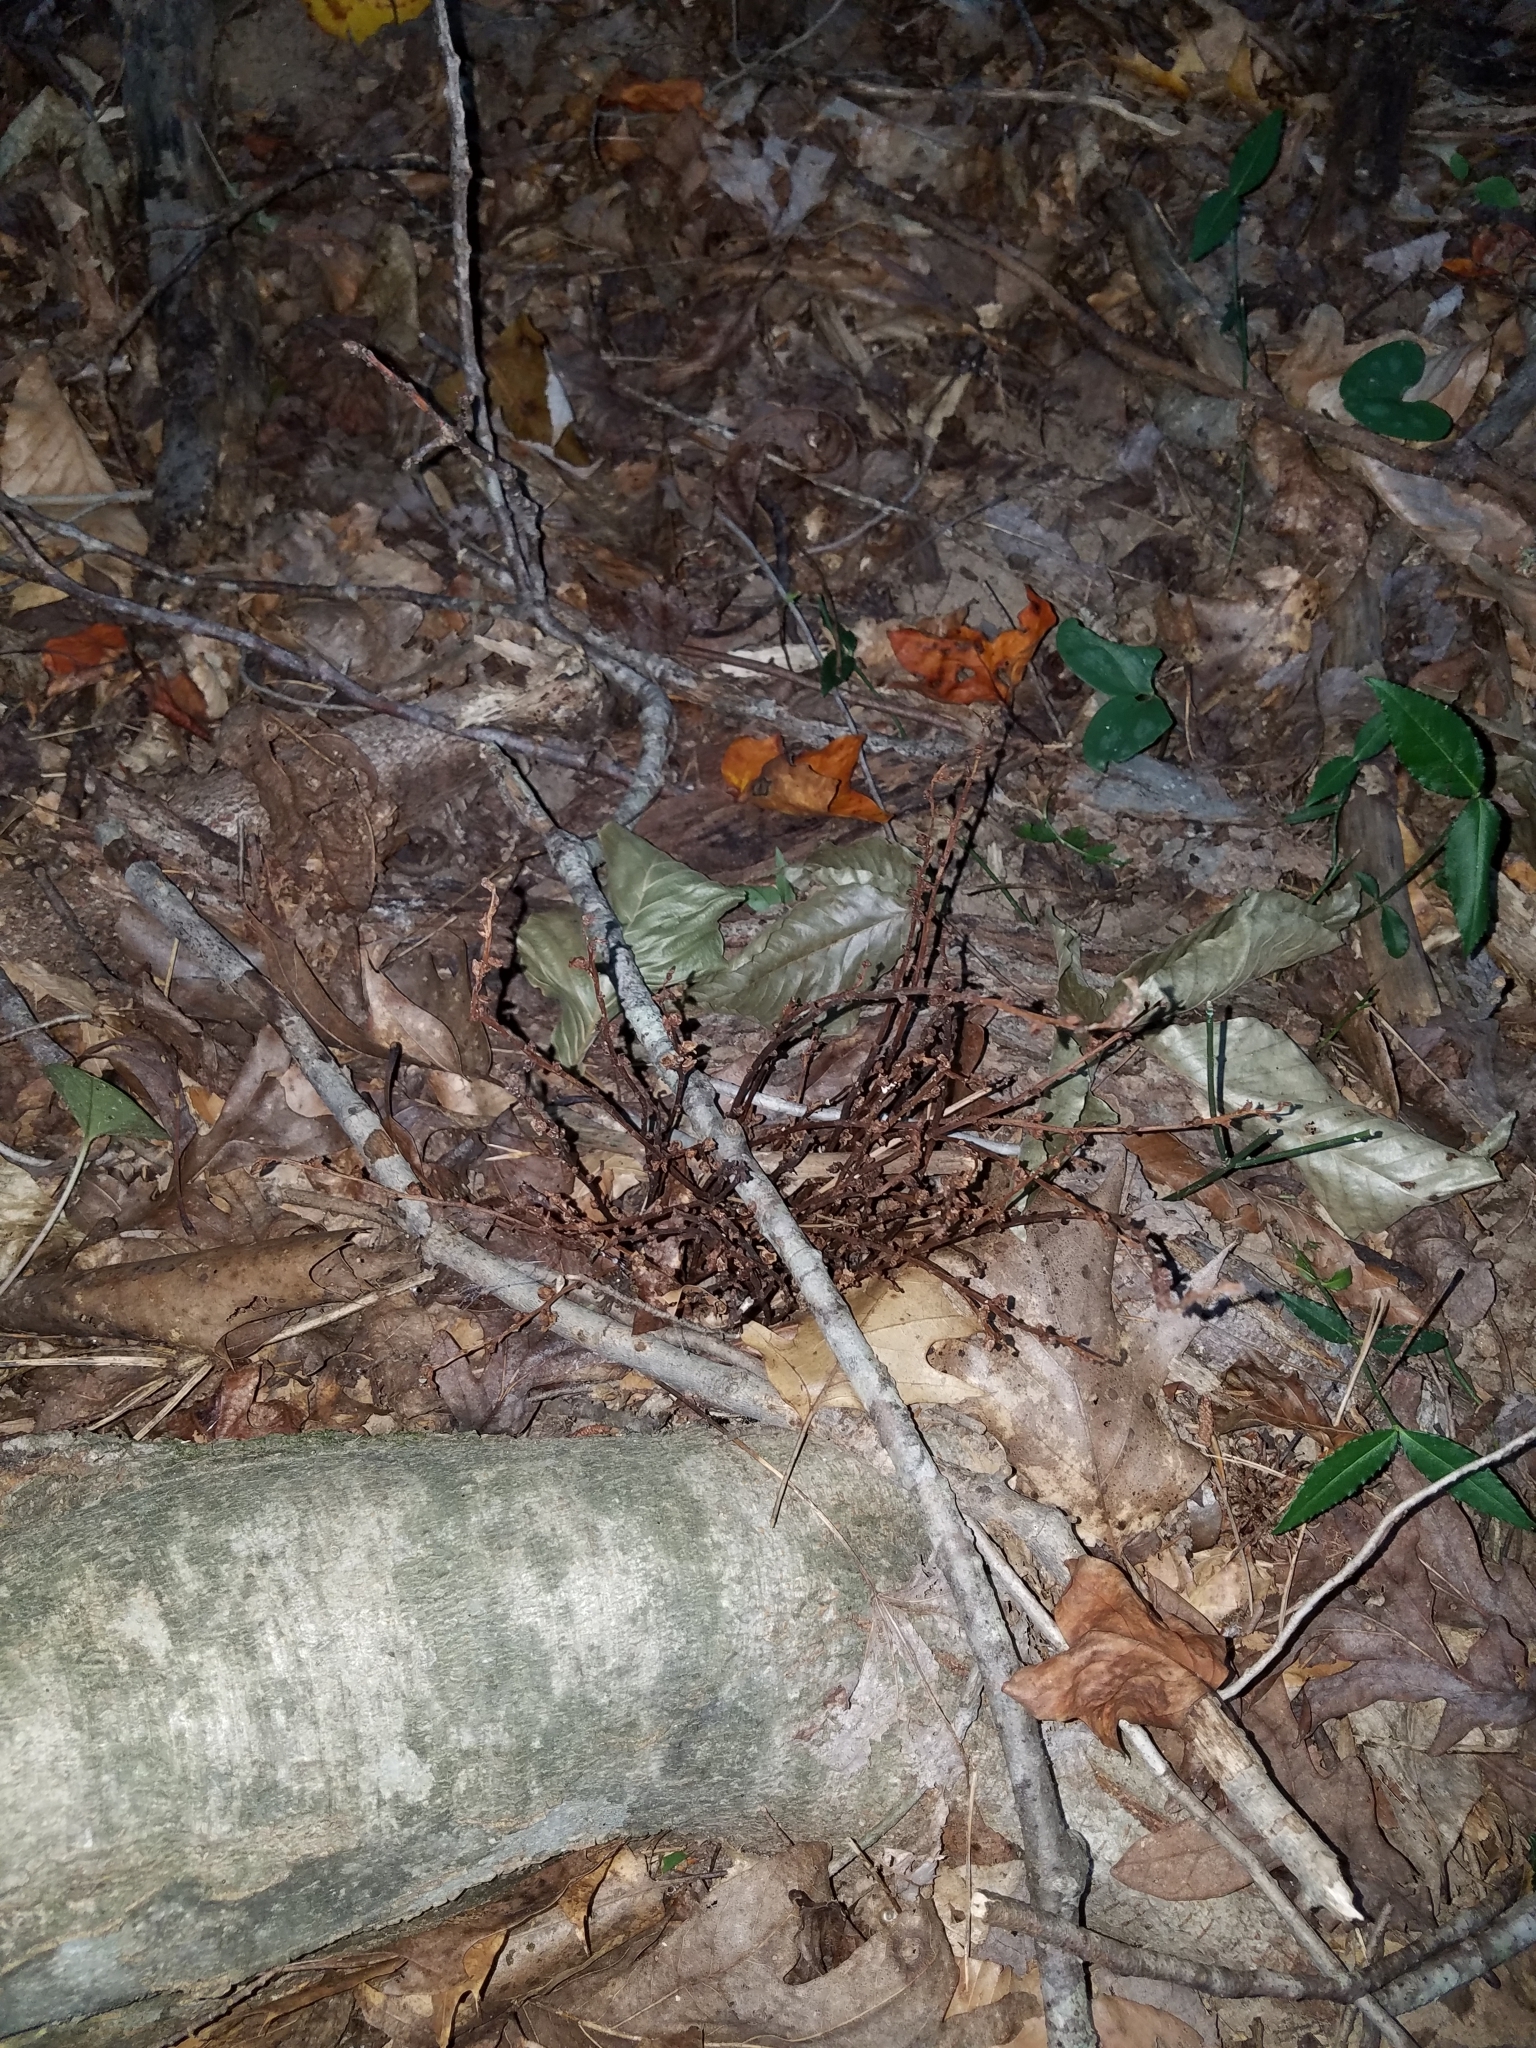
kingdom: Plantae
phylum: Tracheophyta
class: Magnoliopsida
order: Lamiales
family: Orobanchaceae
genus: Epifagus
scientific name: Epifagus virginiana
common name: Beechdrops
